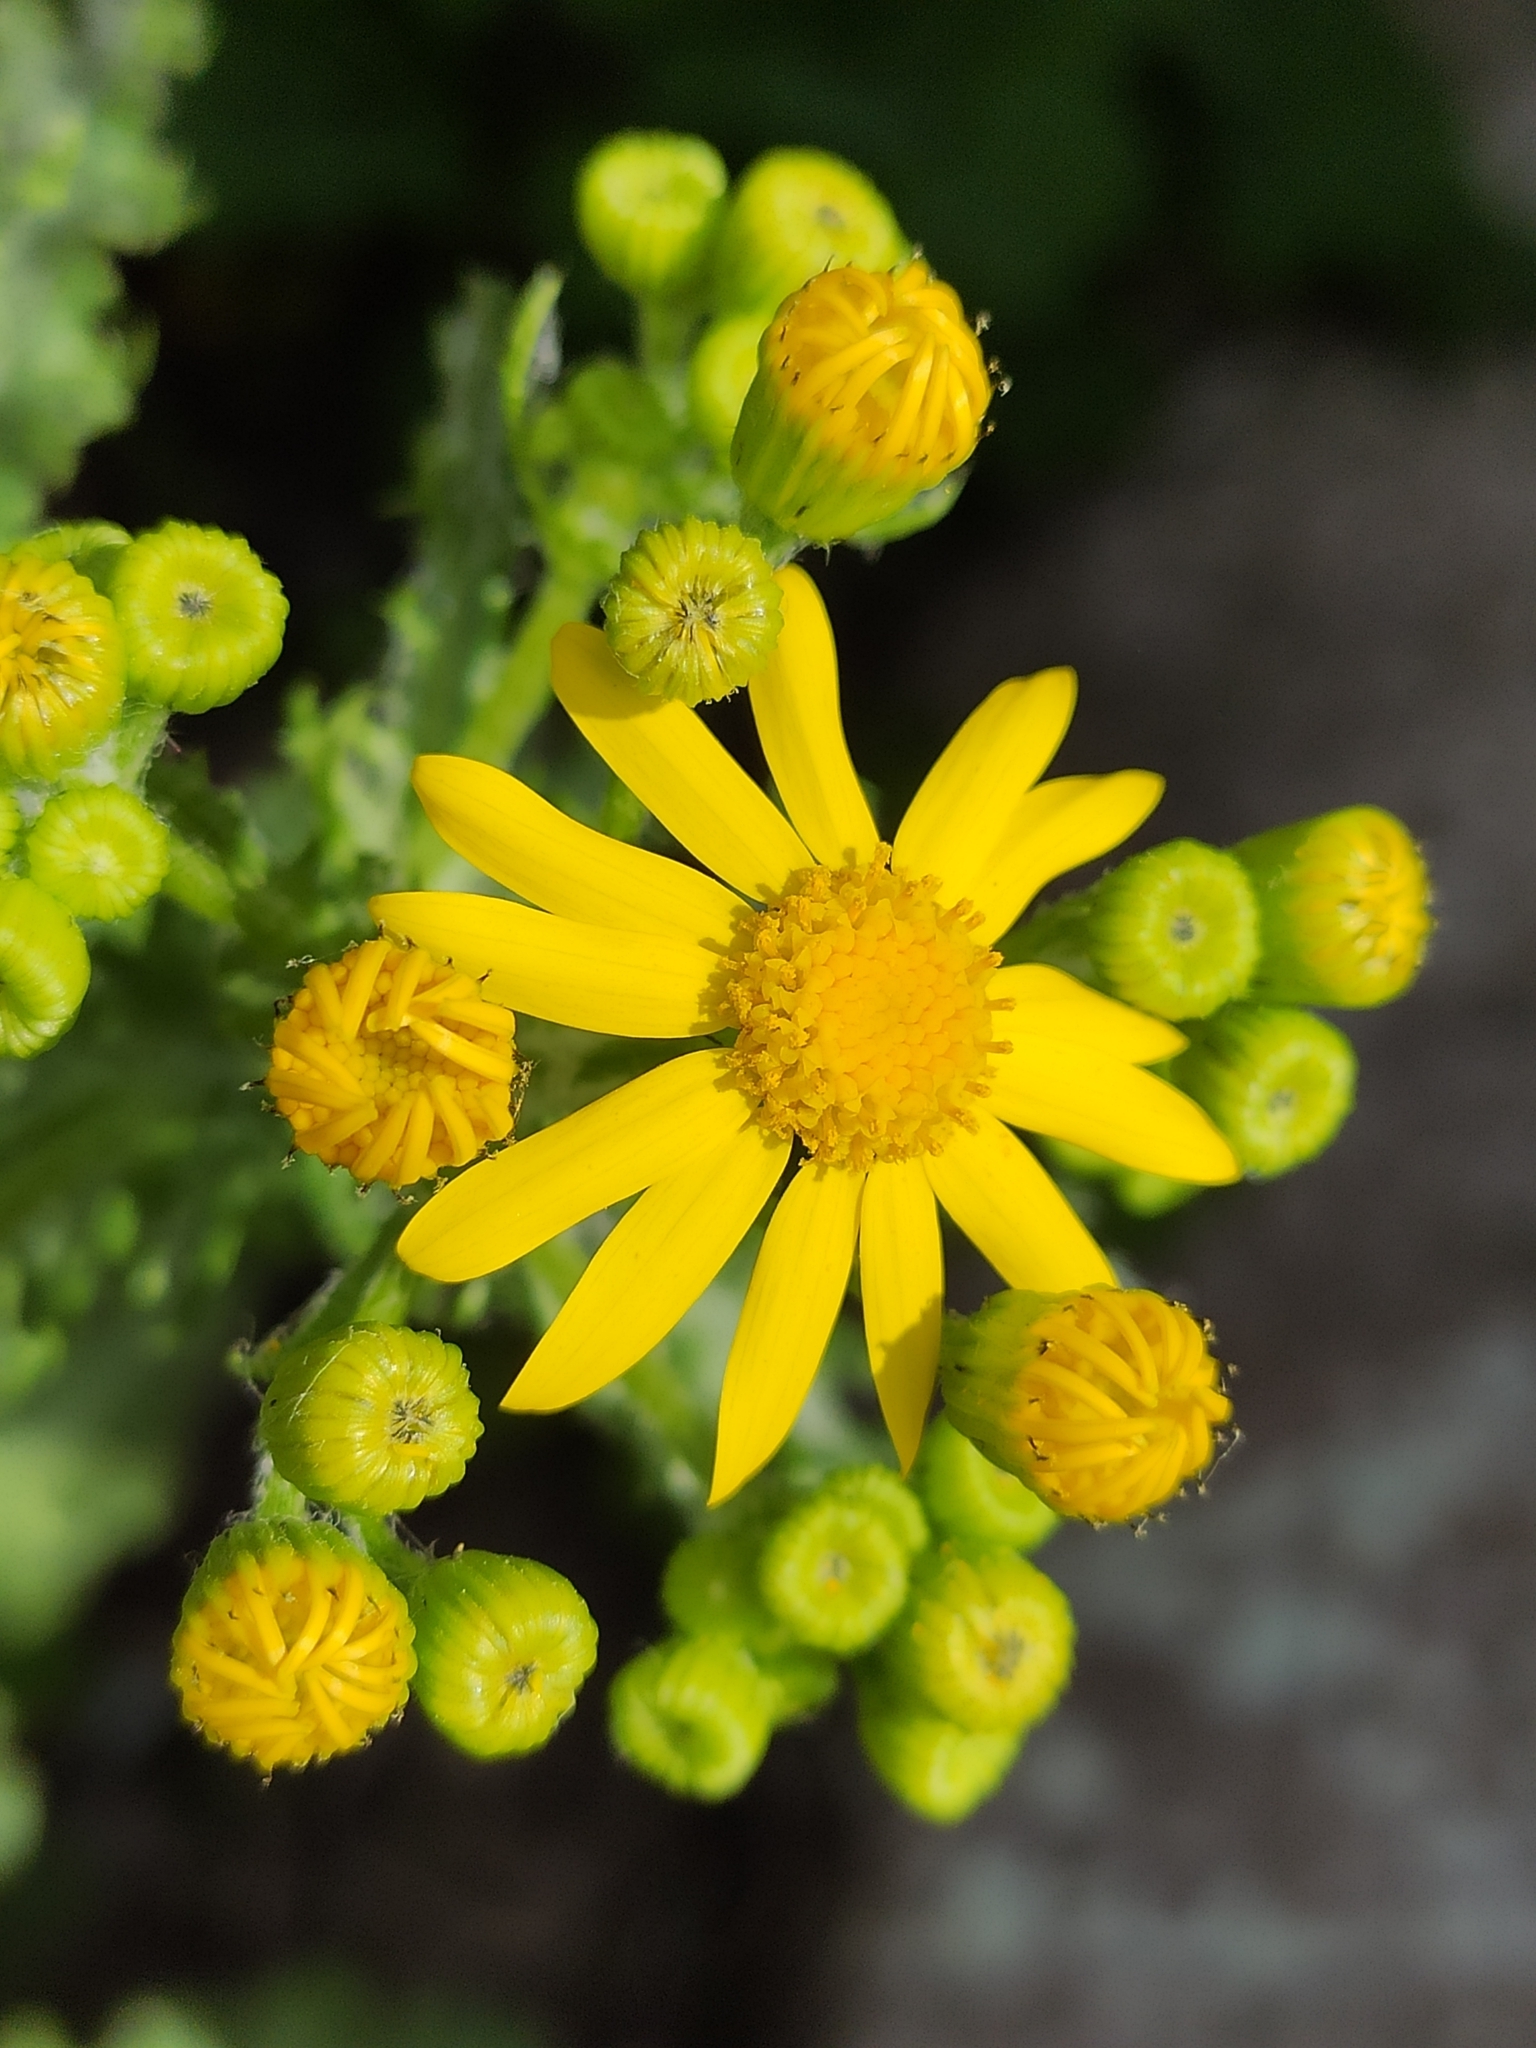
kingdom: Plantae
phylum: Tracheophyta
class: Magnoliopsida
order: Asterales
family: Asteraceae
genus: Senecio
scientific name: Senecio vernalis
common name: Eastern groundsel
